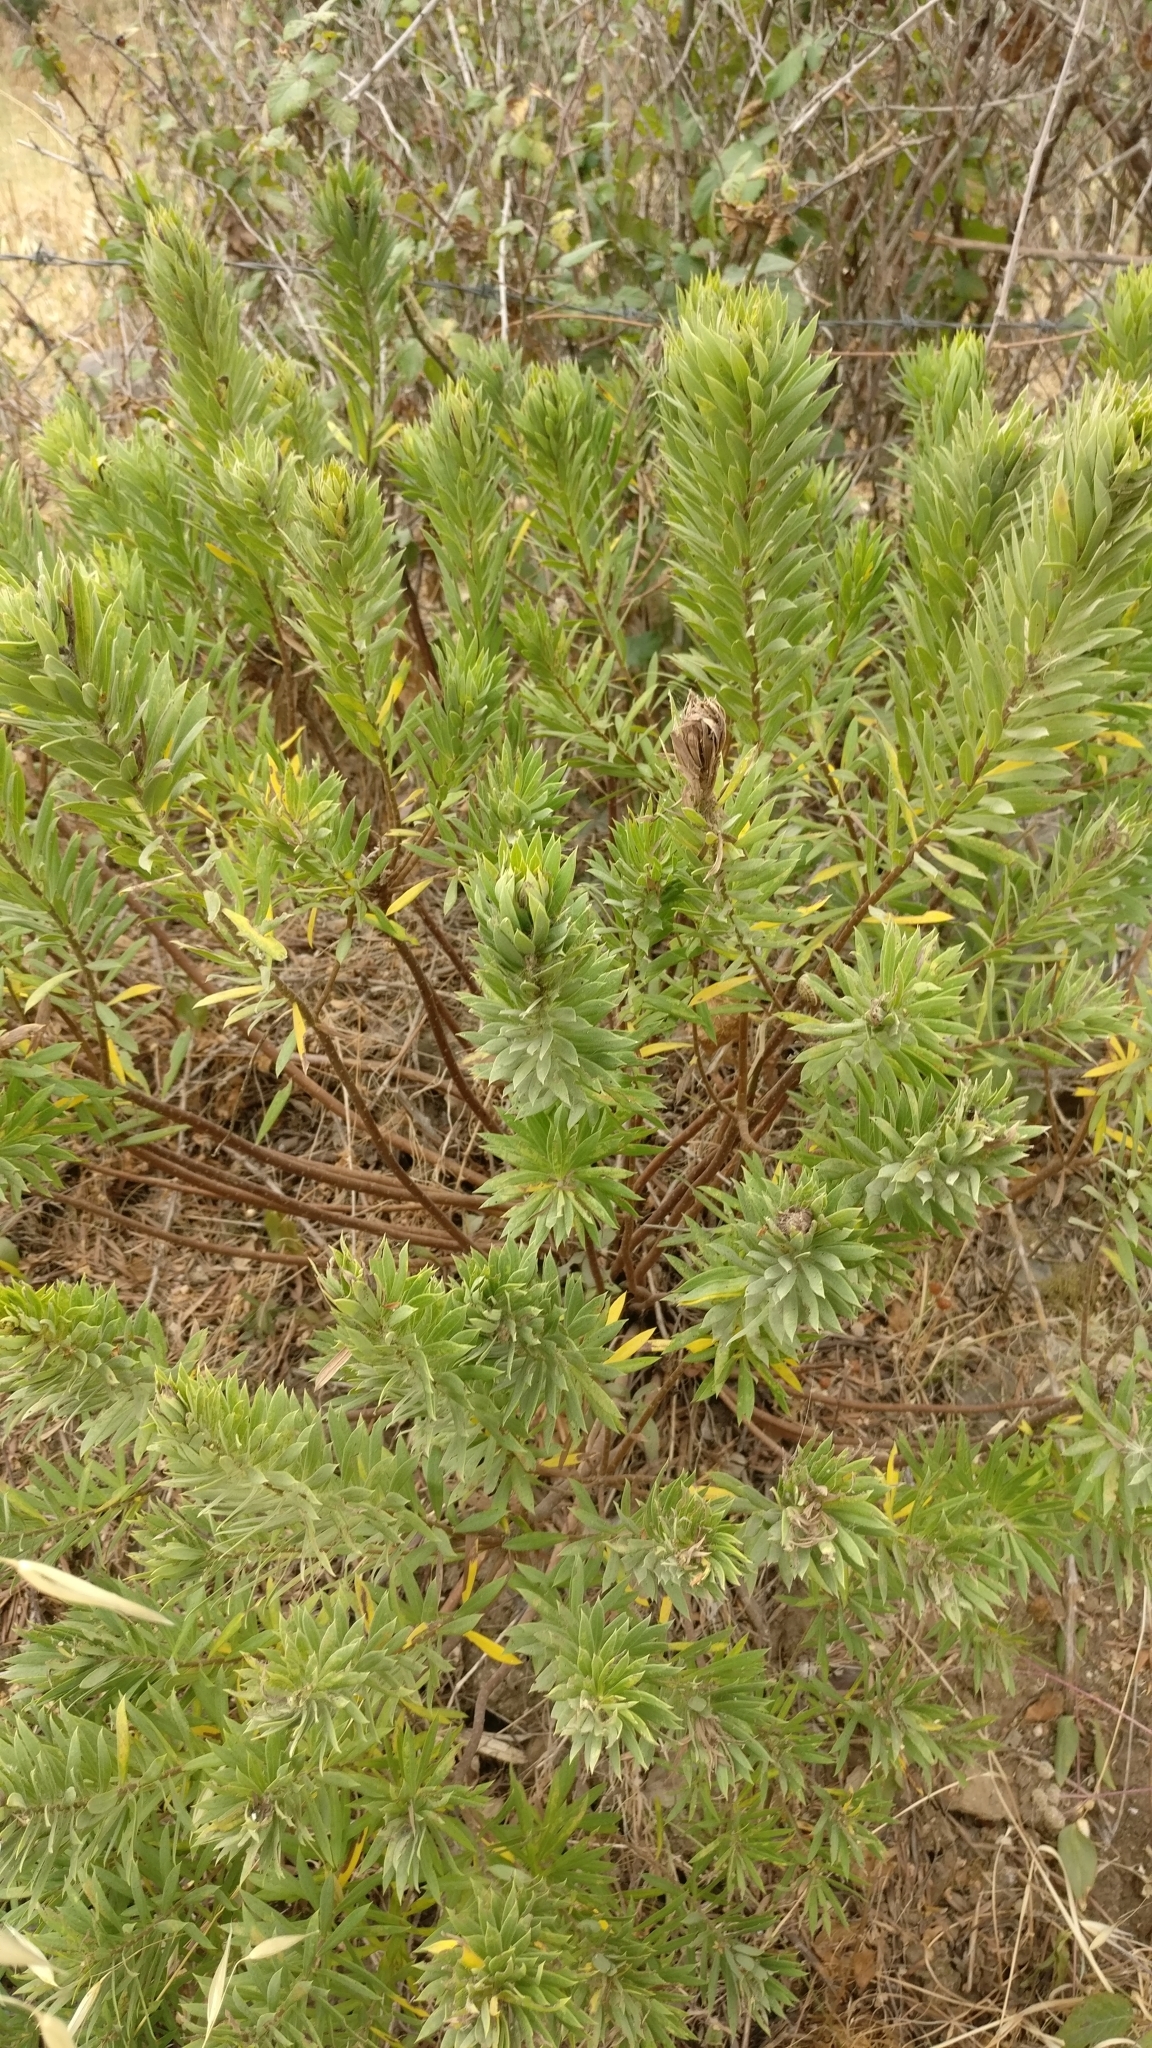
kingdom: Plantae
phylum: Tracheophyta
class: Magnoliopsida
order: Malvales
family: Thymelaeaceae
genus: Daphne
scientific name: Daphne gnidium
